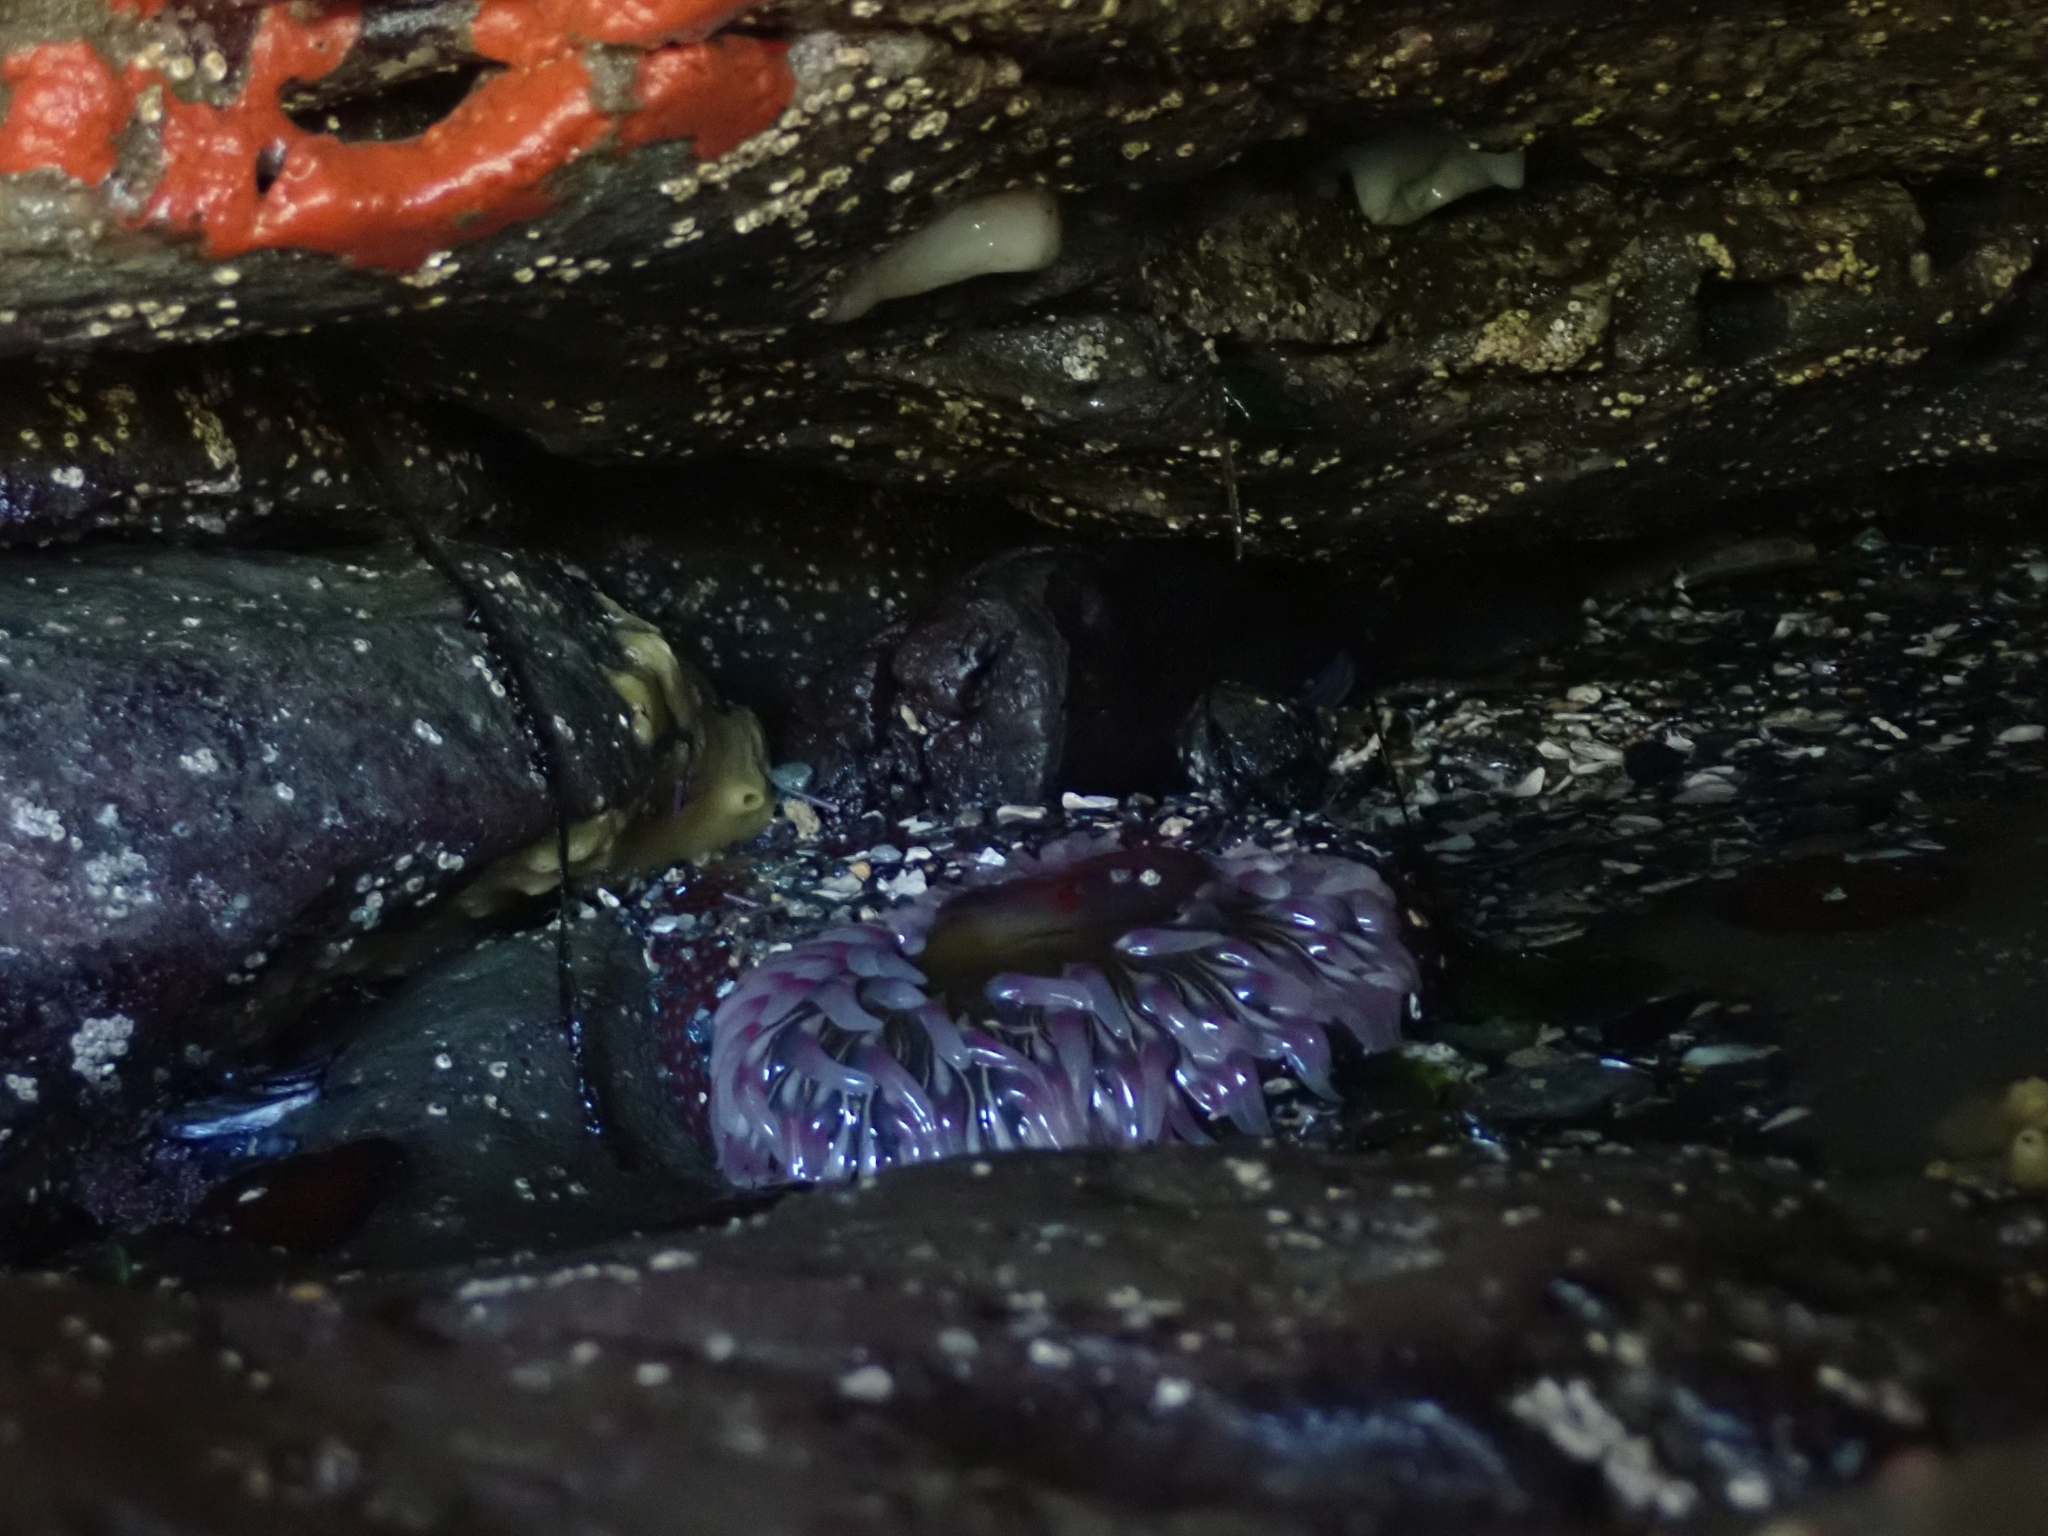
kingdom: Animalia
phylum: Cnidaria
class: Anthozoa
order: Actiniaria
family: Actiniidae
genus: Urticina
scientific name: Urticina clandestina
